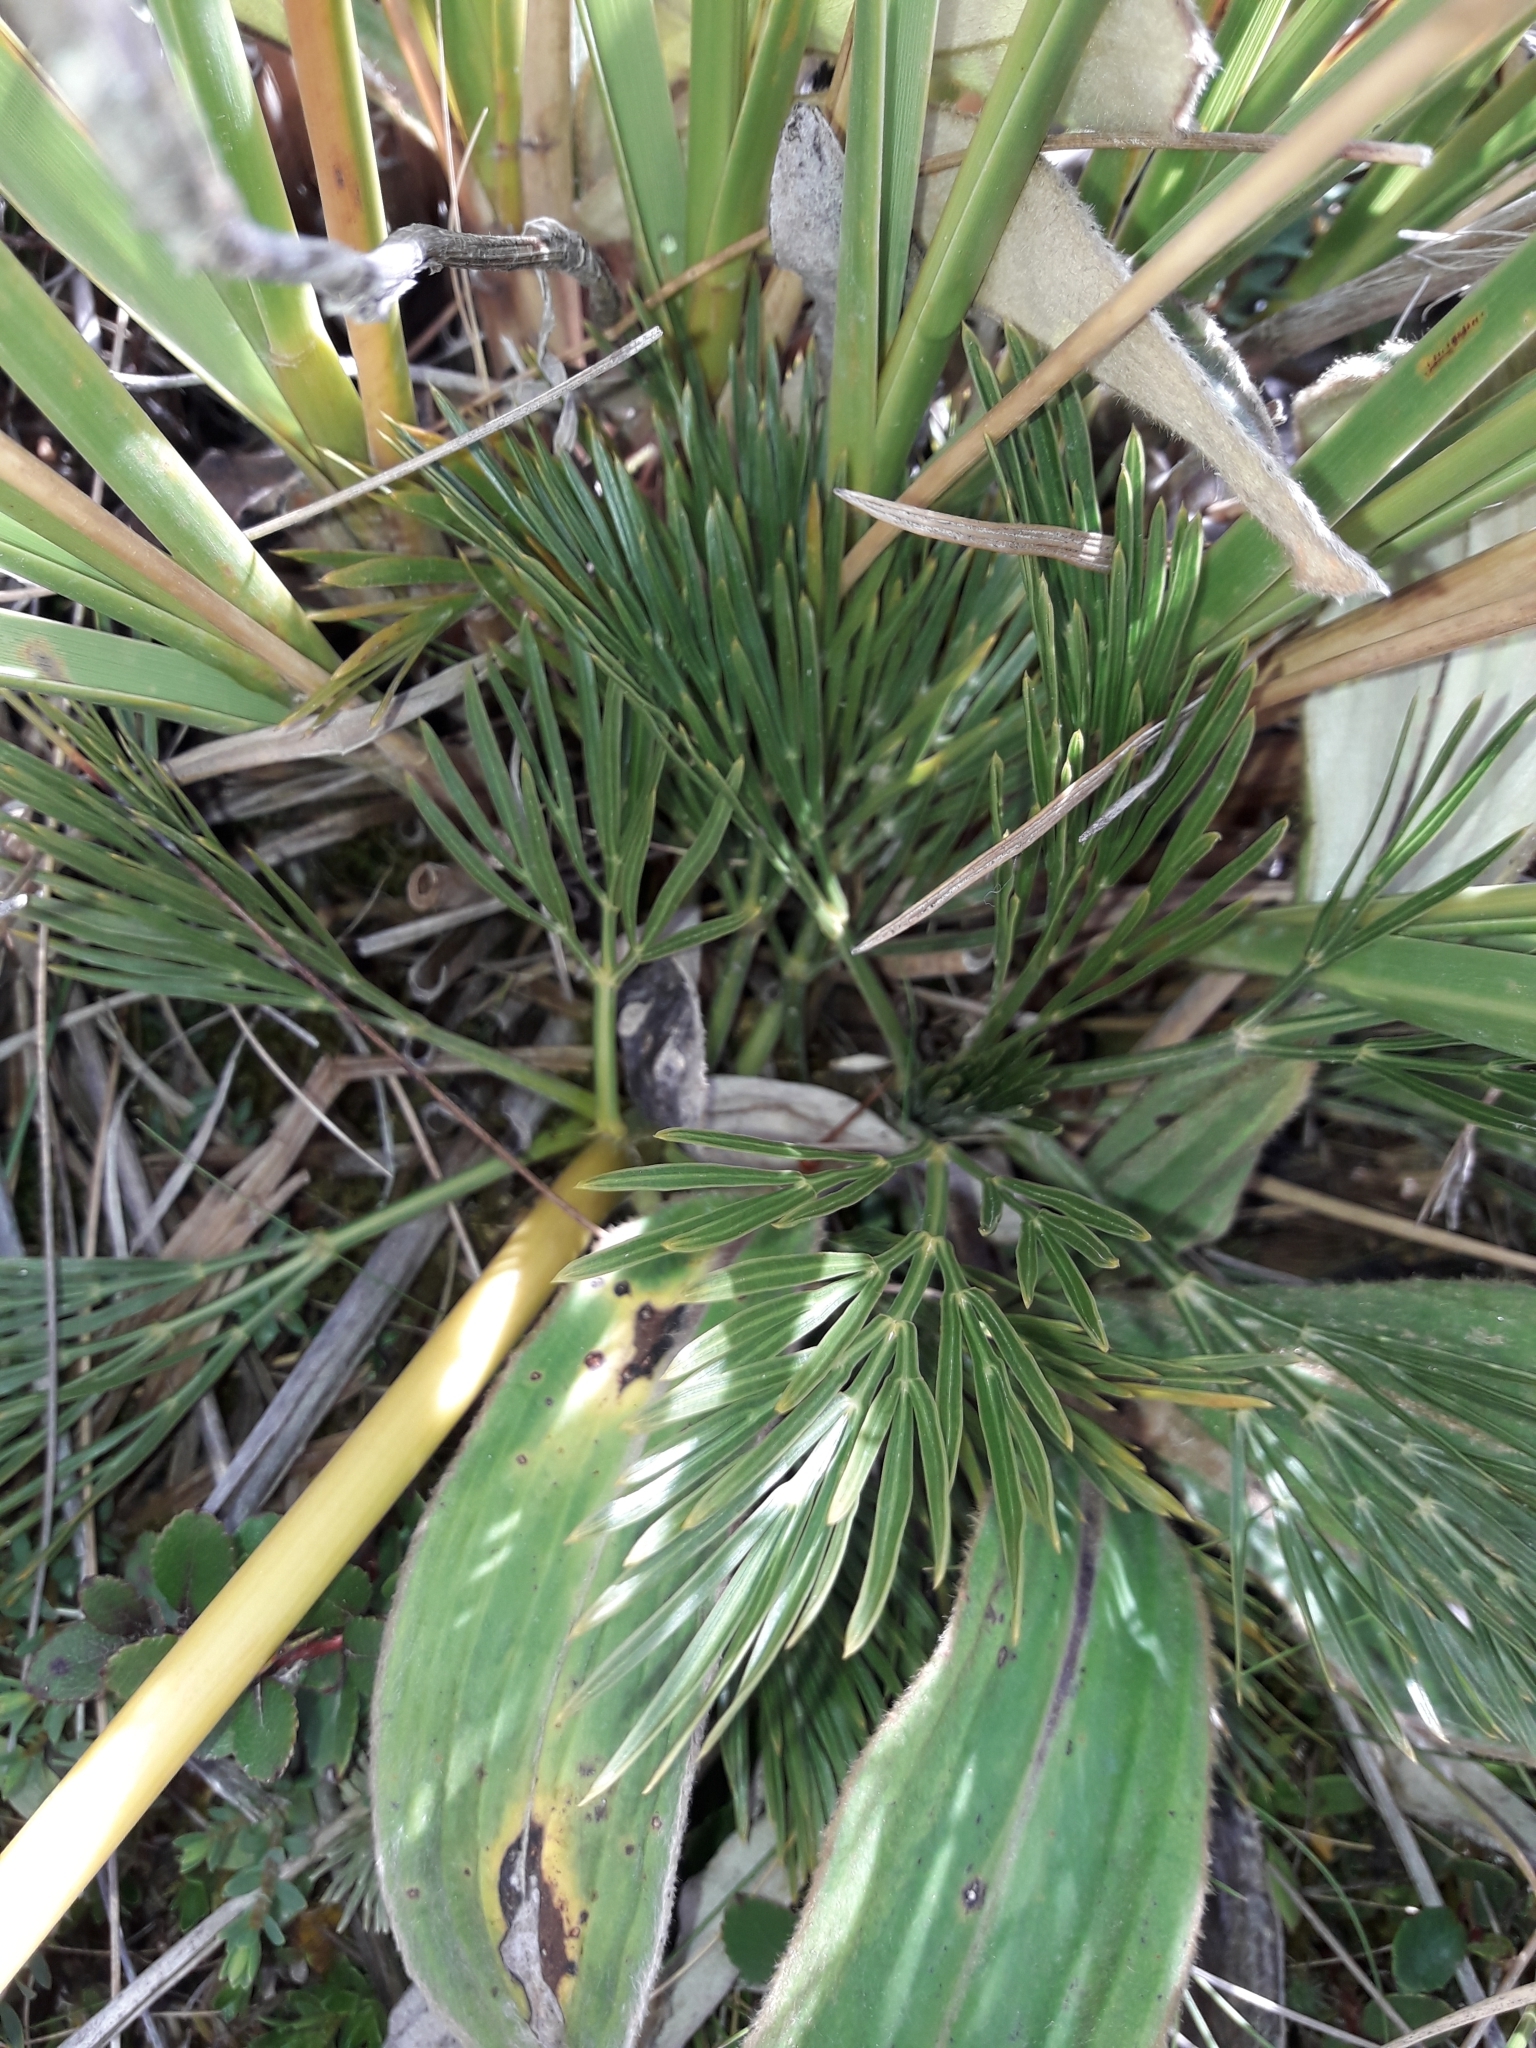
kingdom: Plantae
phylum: Tracheophyta
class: Magnoliopsida
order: Apiales
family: Apiaceae
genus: Aciphylla
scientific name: Aciphylla divisa
